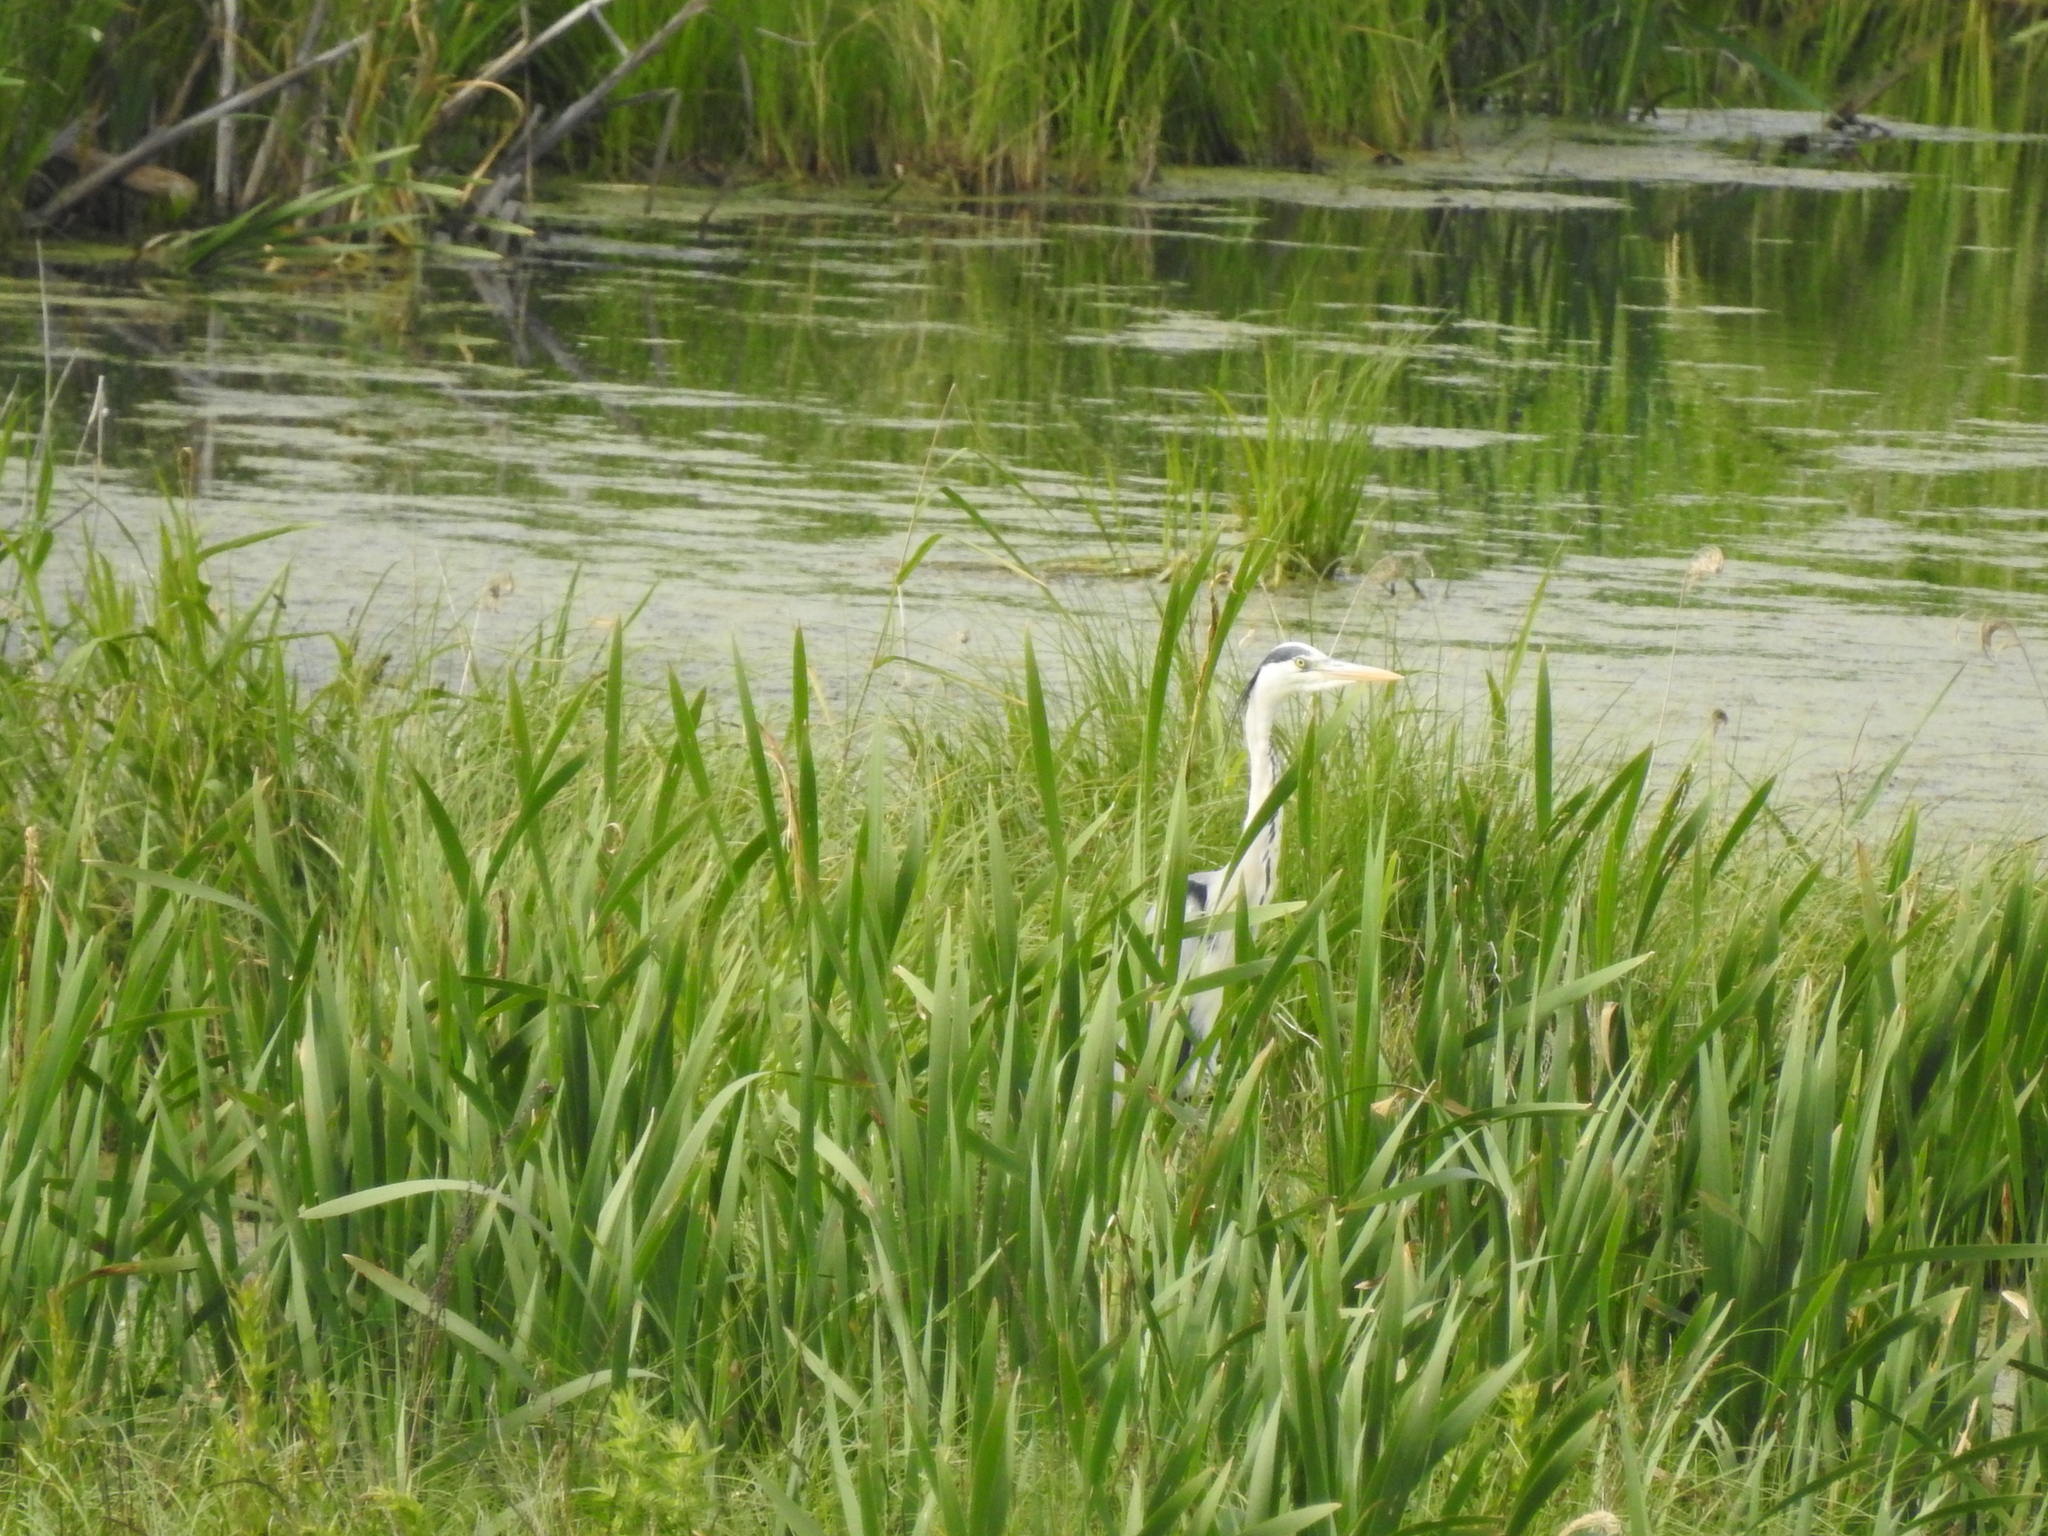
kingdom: Animalia
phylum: Chordata
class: Aves
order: Pelecaniformes
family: Ardeidae
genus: Ardea
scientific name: Ardea cinerea
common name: Grey heron
